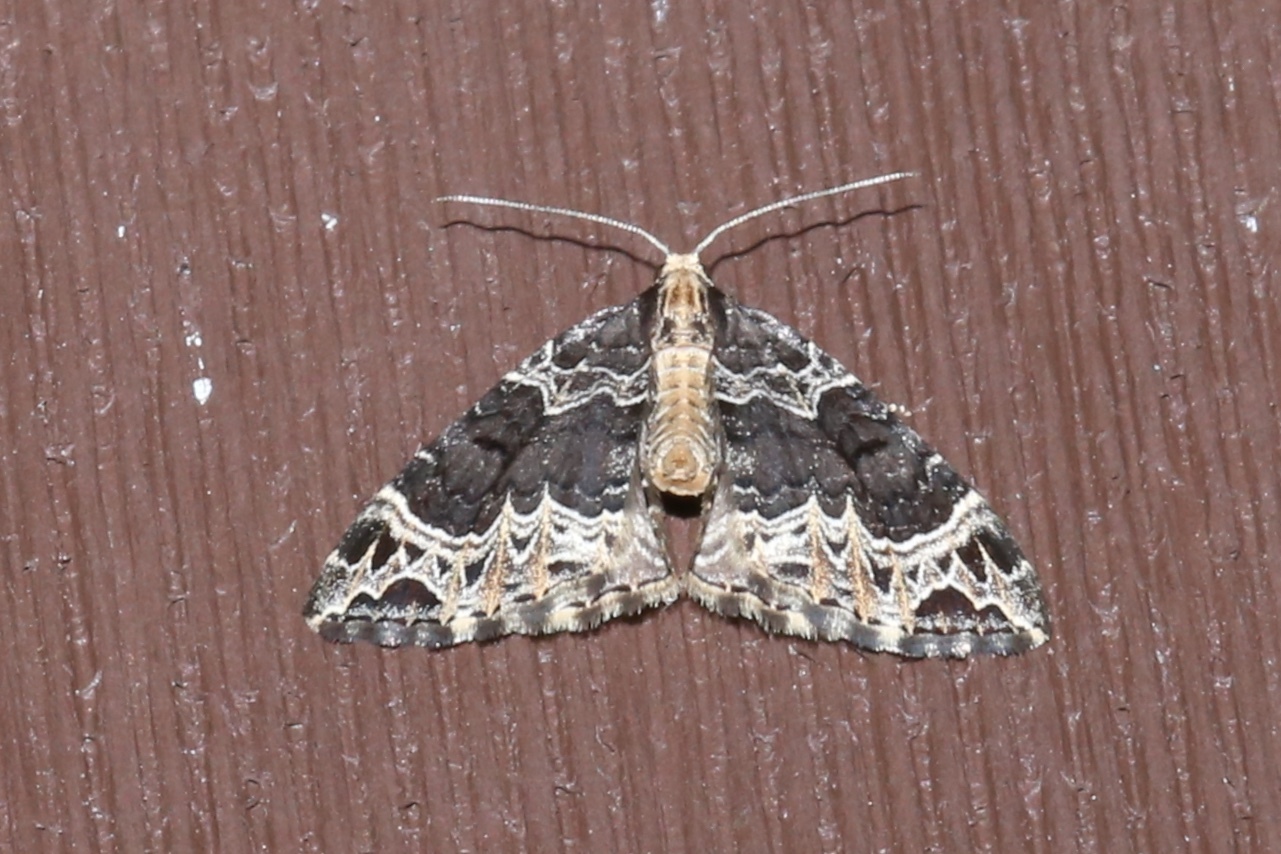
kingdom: Animalia
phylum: Arthropoda
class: Insecta
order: Lepidoptera
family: Geometridae
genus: Ecliptopera
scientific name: Ecliptopera silaceata
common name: Small phoenix
